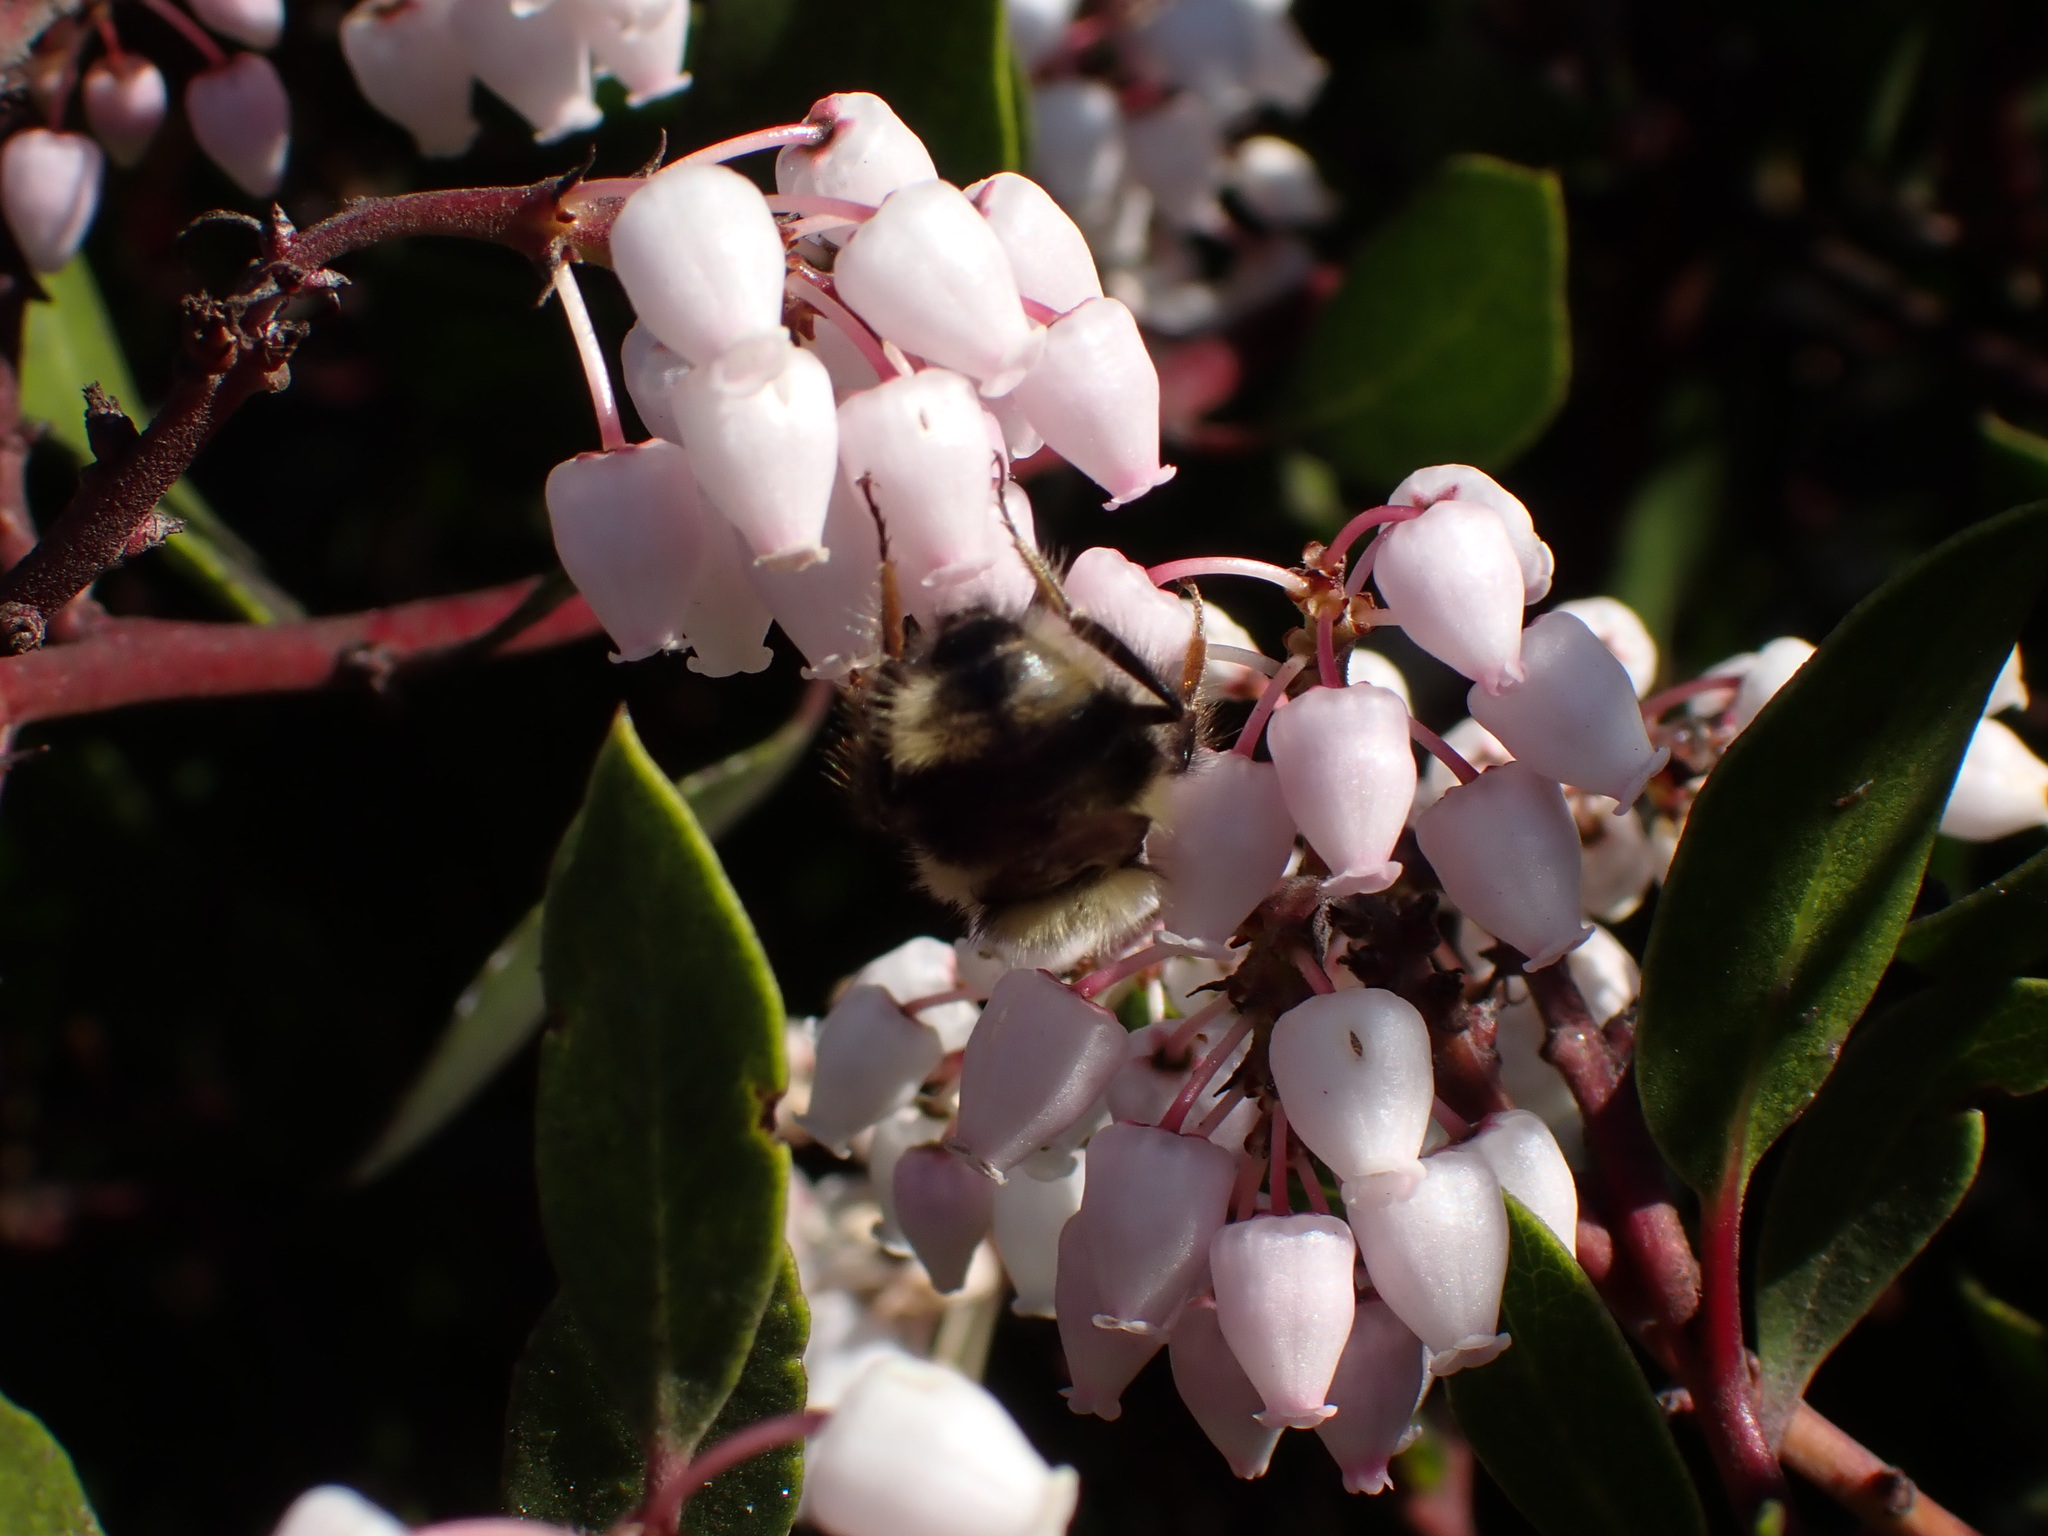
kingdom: Animalia
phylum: Arthropoda
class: Insecta
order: Hymenoptera
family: Apidae
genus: Bombus
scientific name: Bombus melanopygus
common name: Black tail bumble bee
